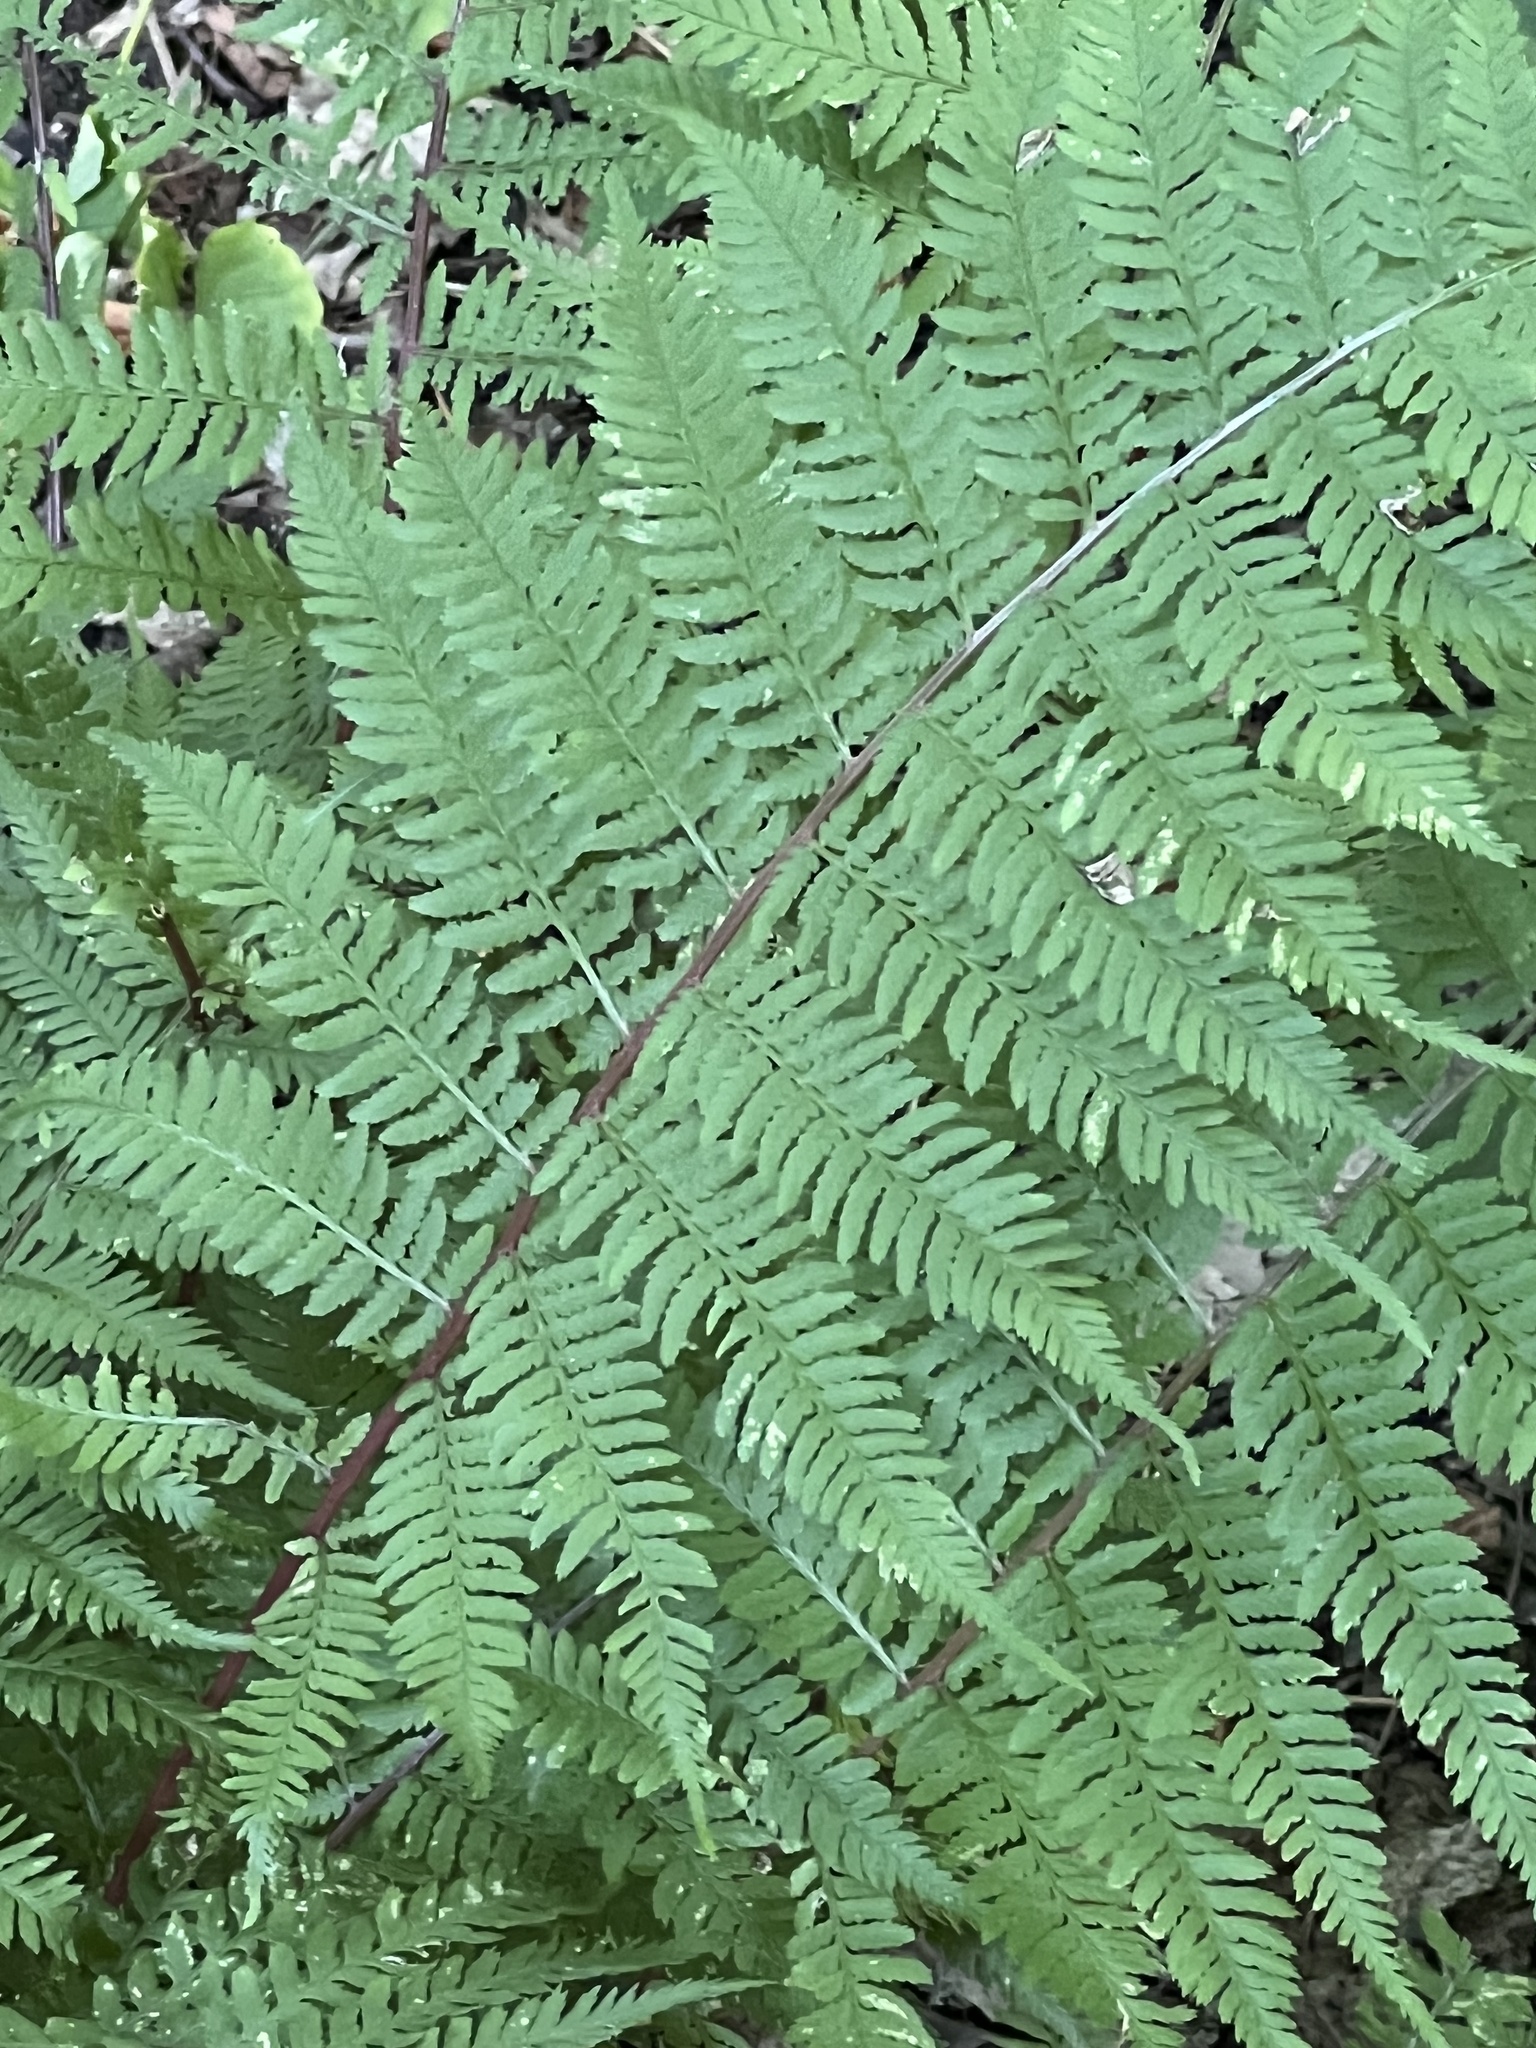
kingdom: Plantae
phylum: Tracheophyta
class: Polypodiopsida
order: Polypodiales
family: Athyriaceae
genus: Athyrium
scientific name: Athyrium angustum
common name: Northern lady fern
